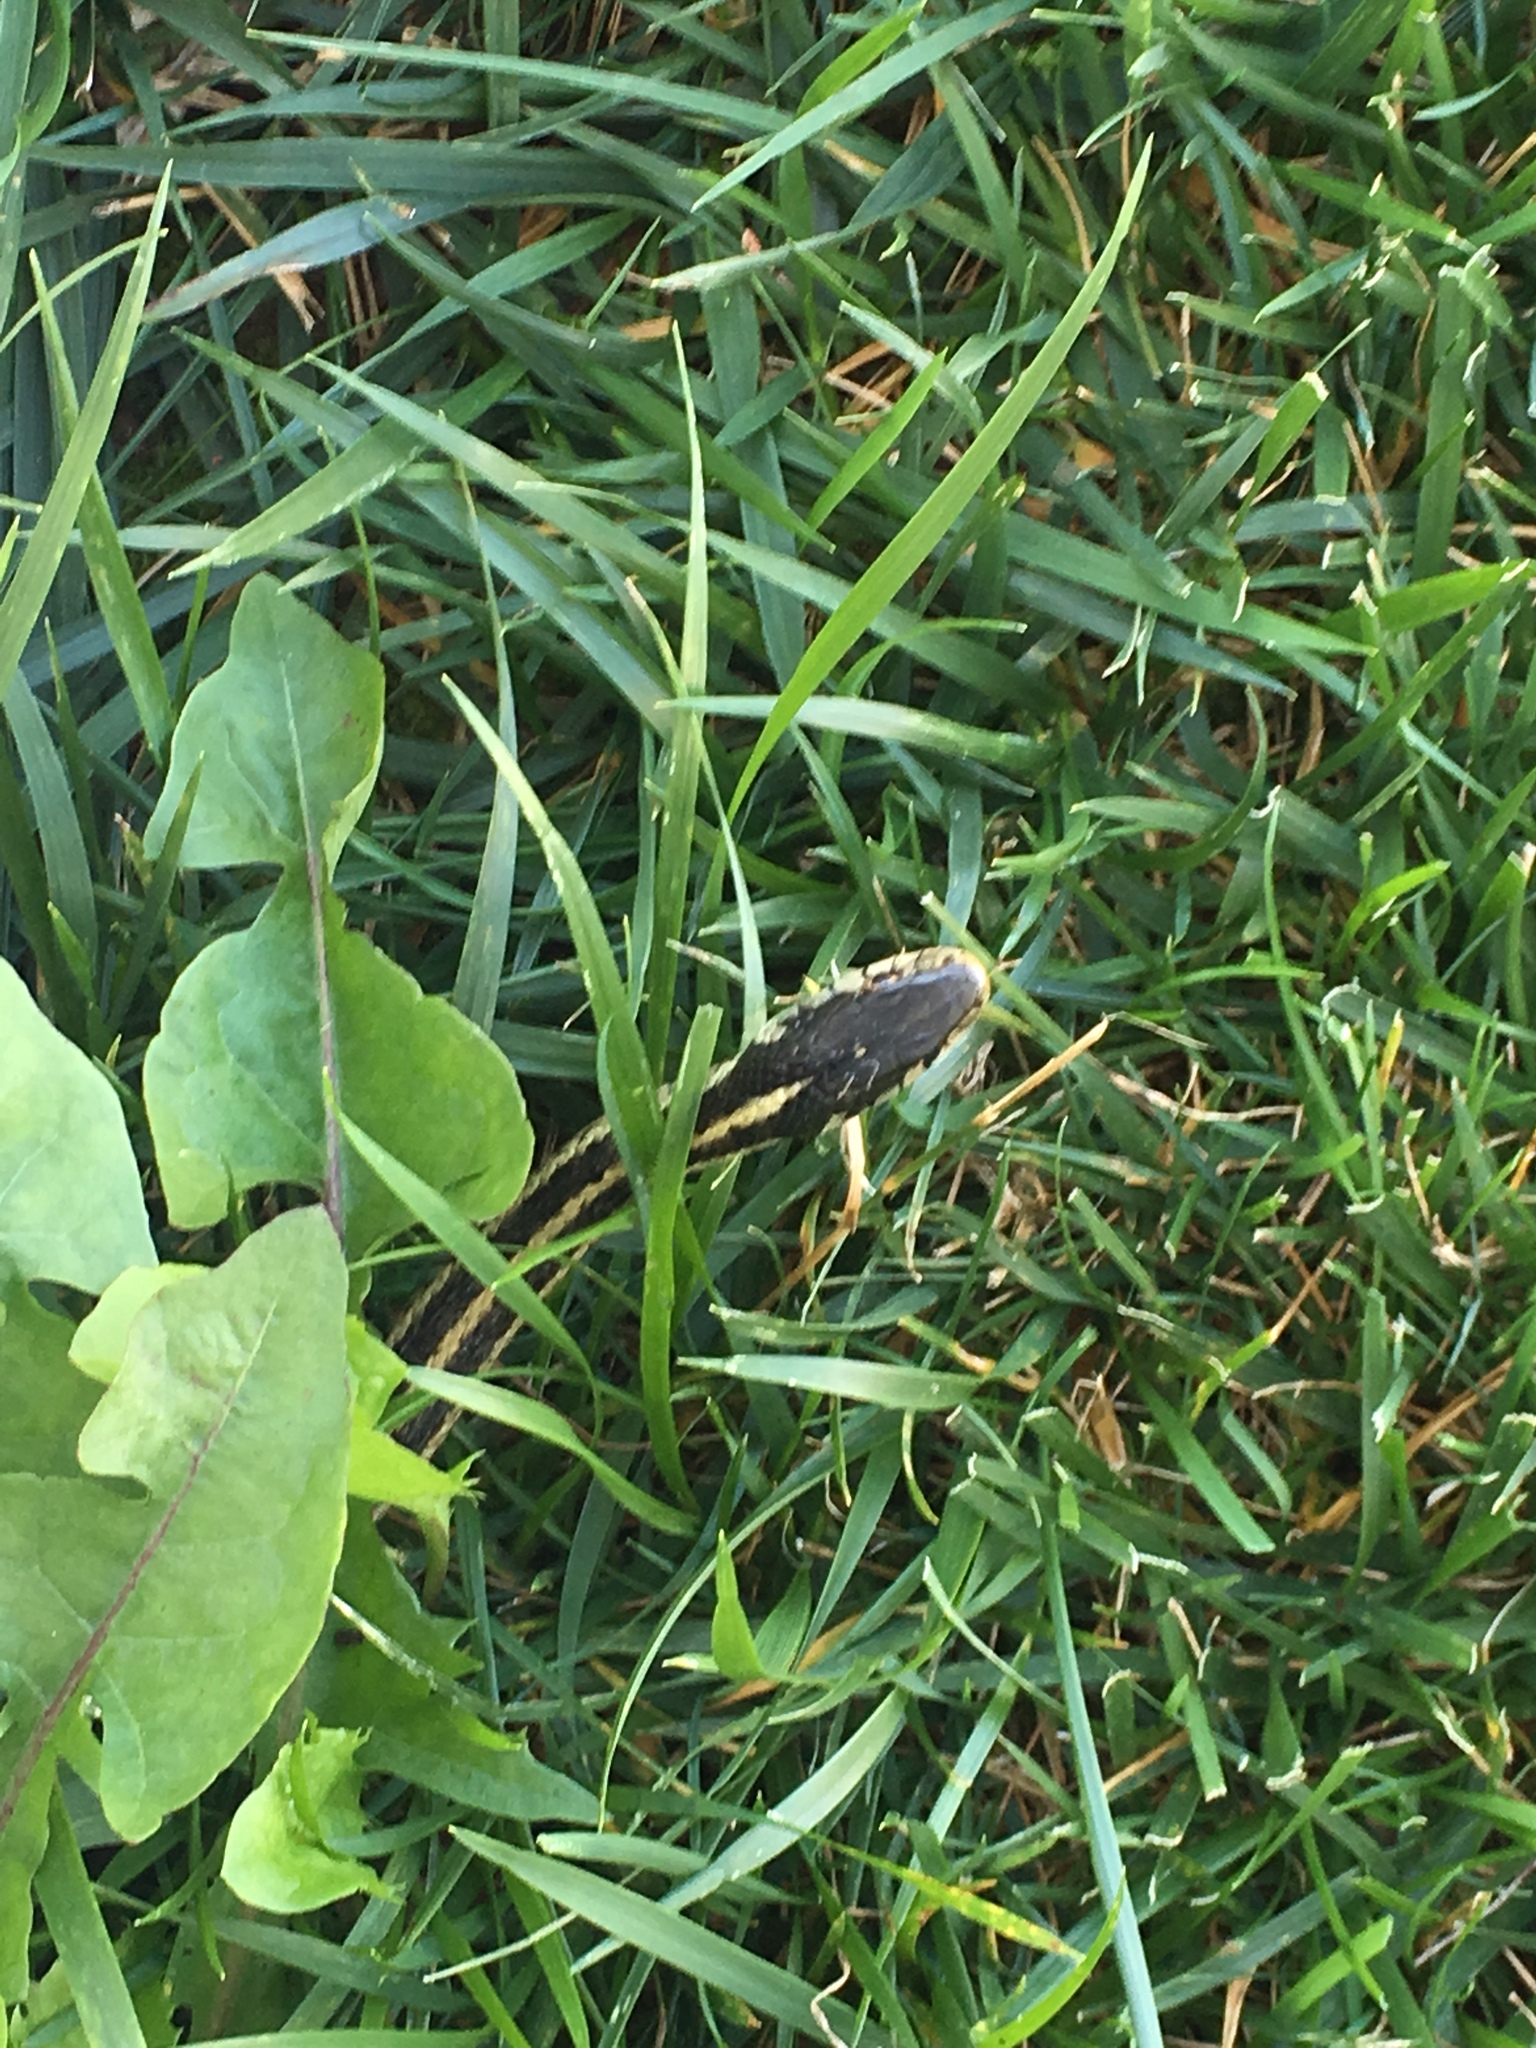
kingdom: Animalia
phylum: Chordata
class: Squamata
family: Colubridae
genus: Thamnophis
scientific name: Thamnophis sirtalis
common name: Common garter snake
